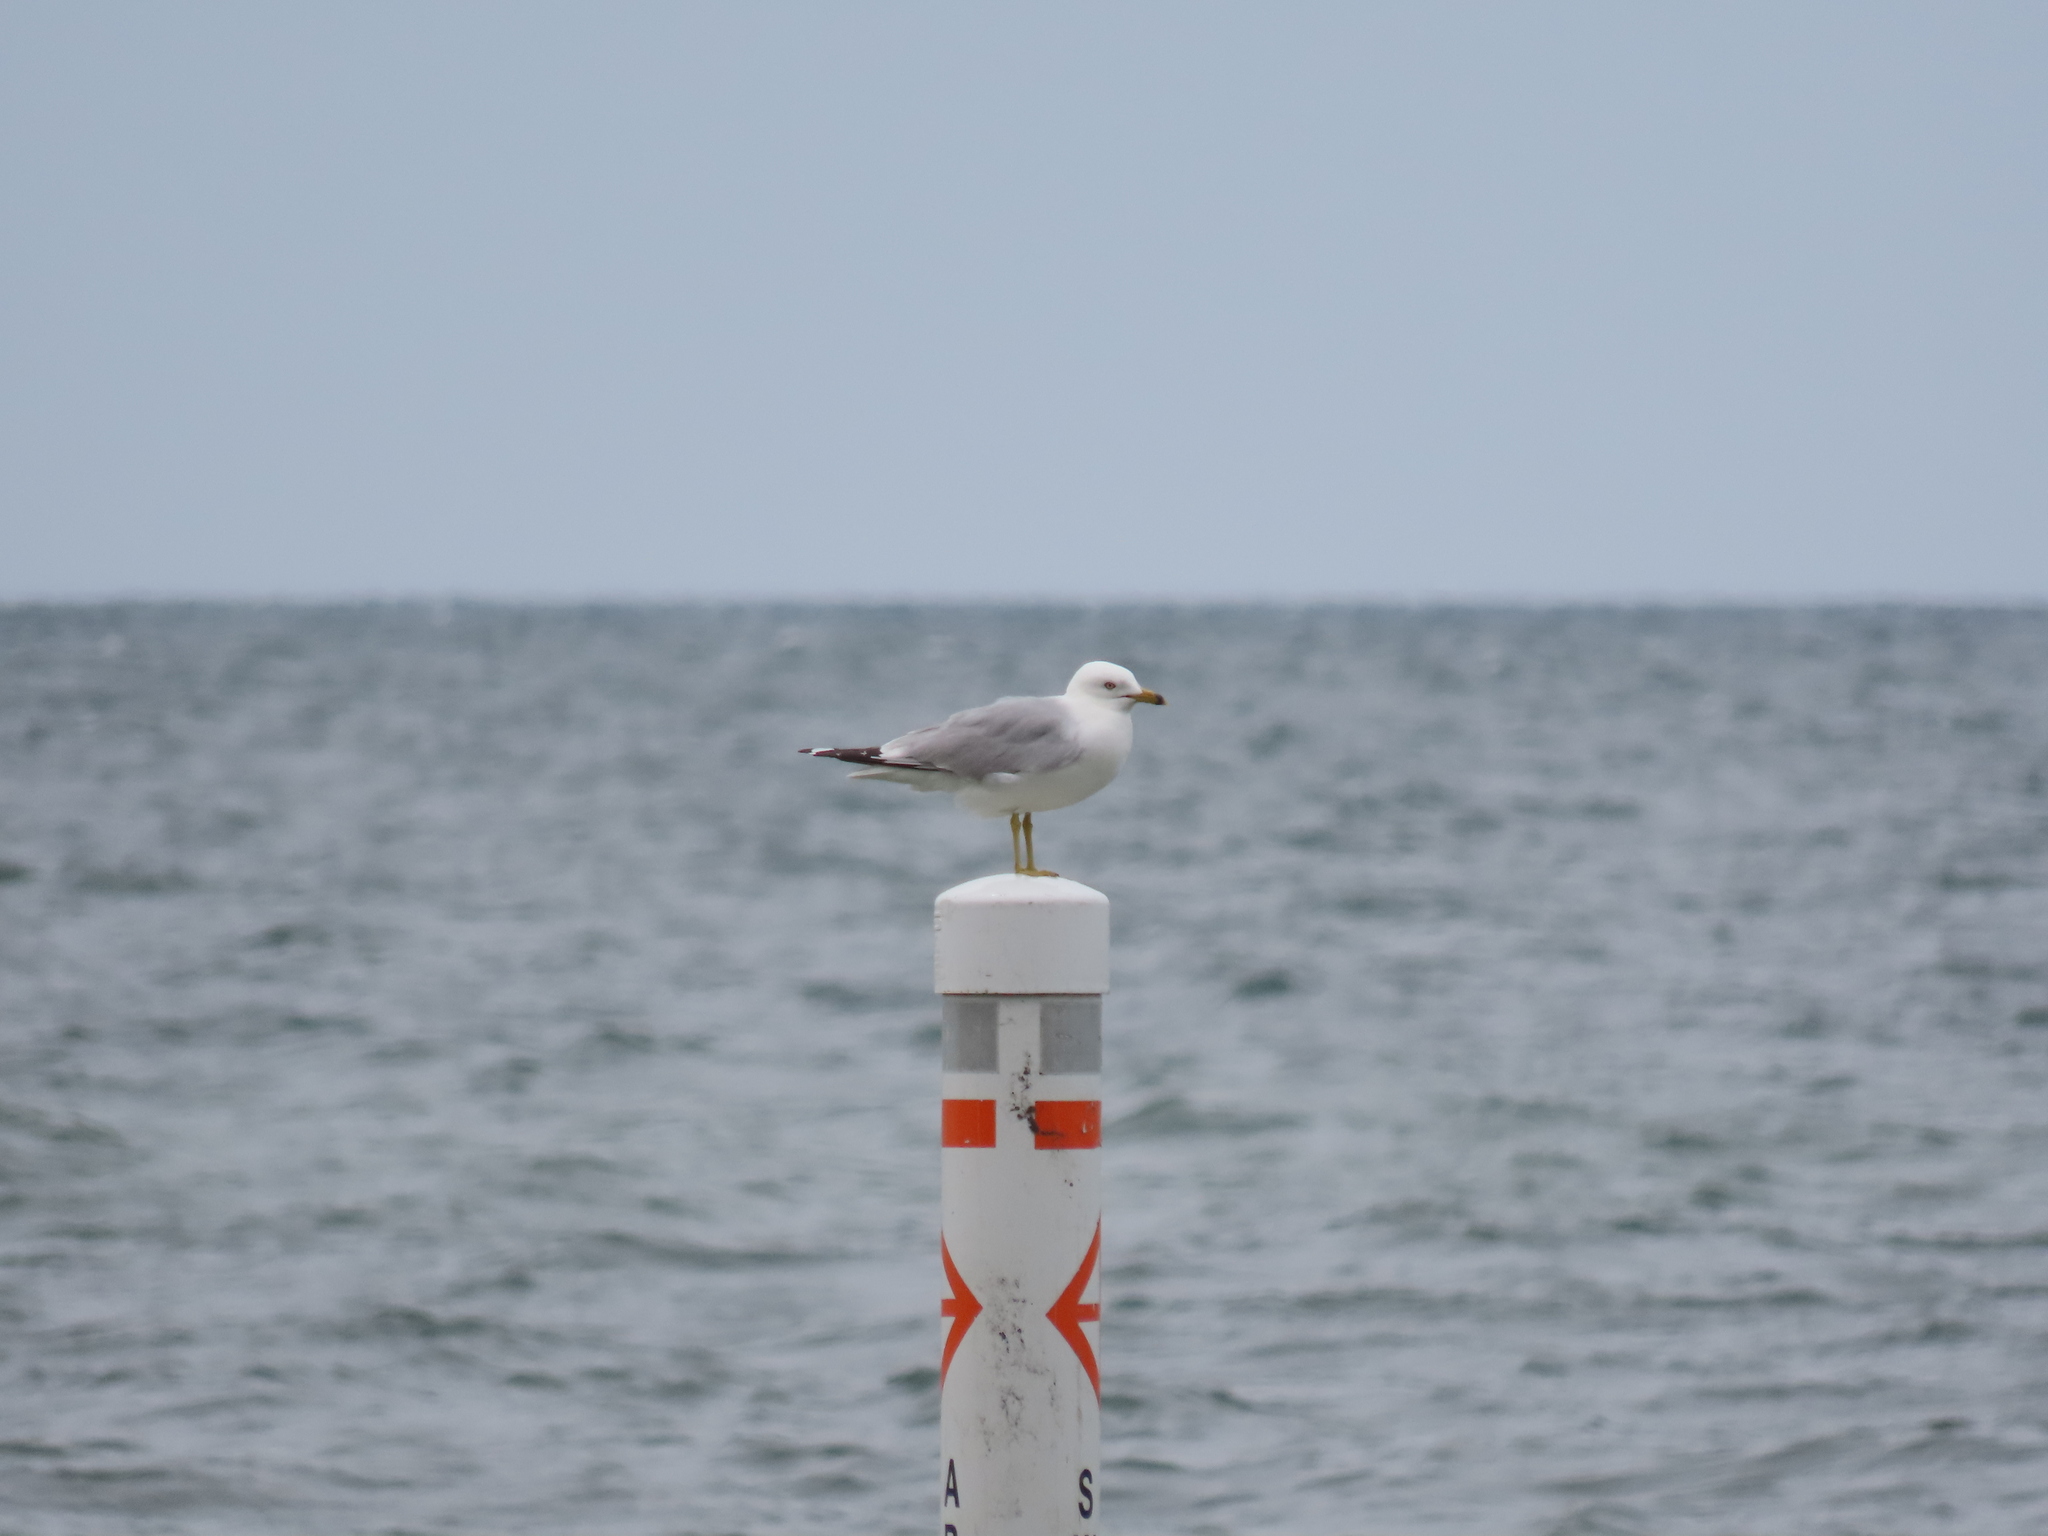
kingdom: Animalia
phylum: Chordata
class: Aves
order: Charadriiformes
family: Laridae
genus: Larus
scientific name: Larus delawarensis
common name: Ring-billed gull
